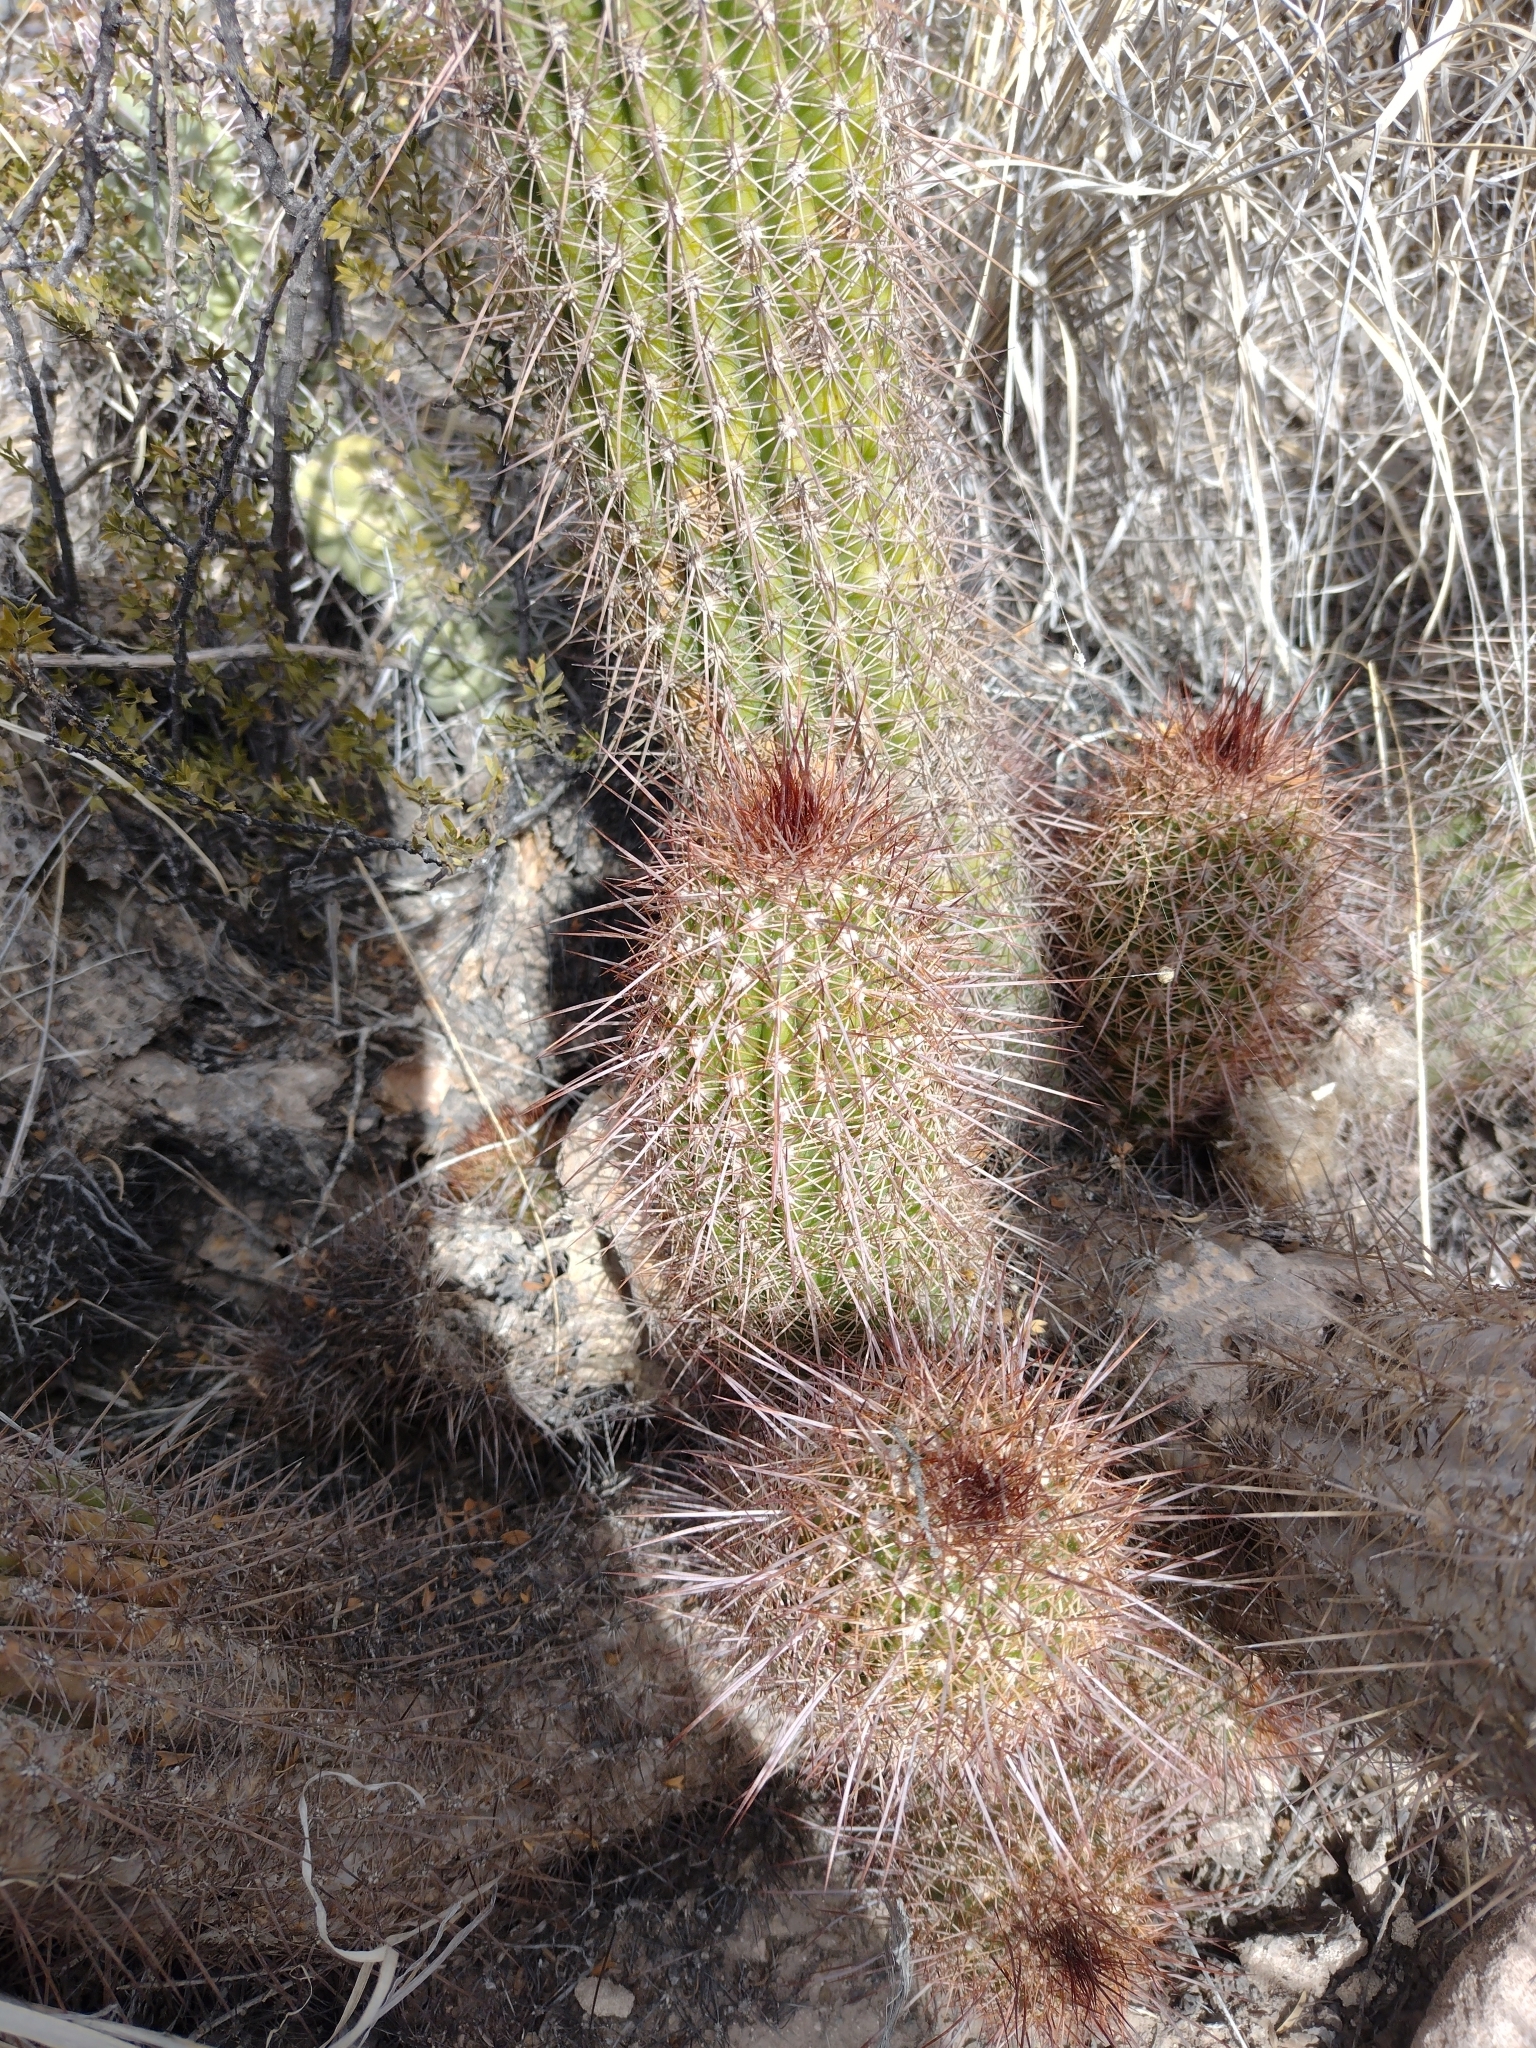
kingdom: Plantae
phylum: Tracheophyta
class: Magnoliopsida
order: Caryophyllales
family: Cactaceae
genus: Soehrensia
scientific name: Soehrensia strigosa
